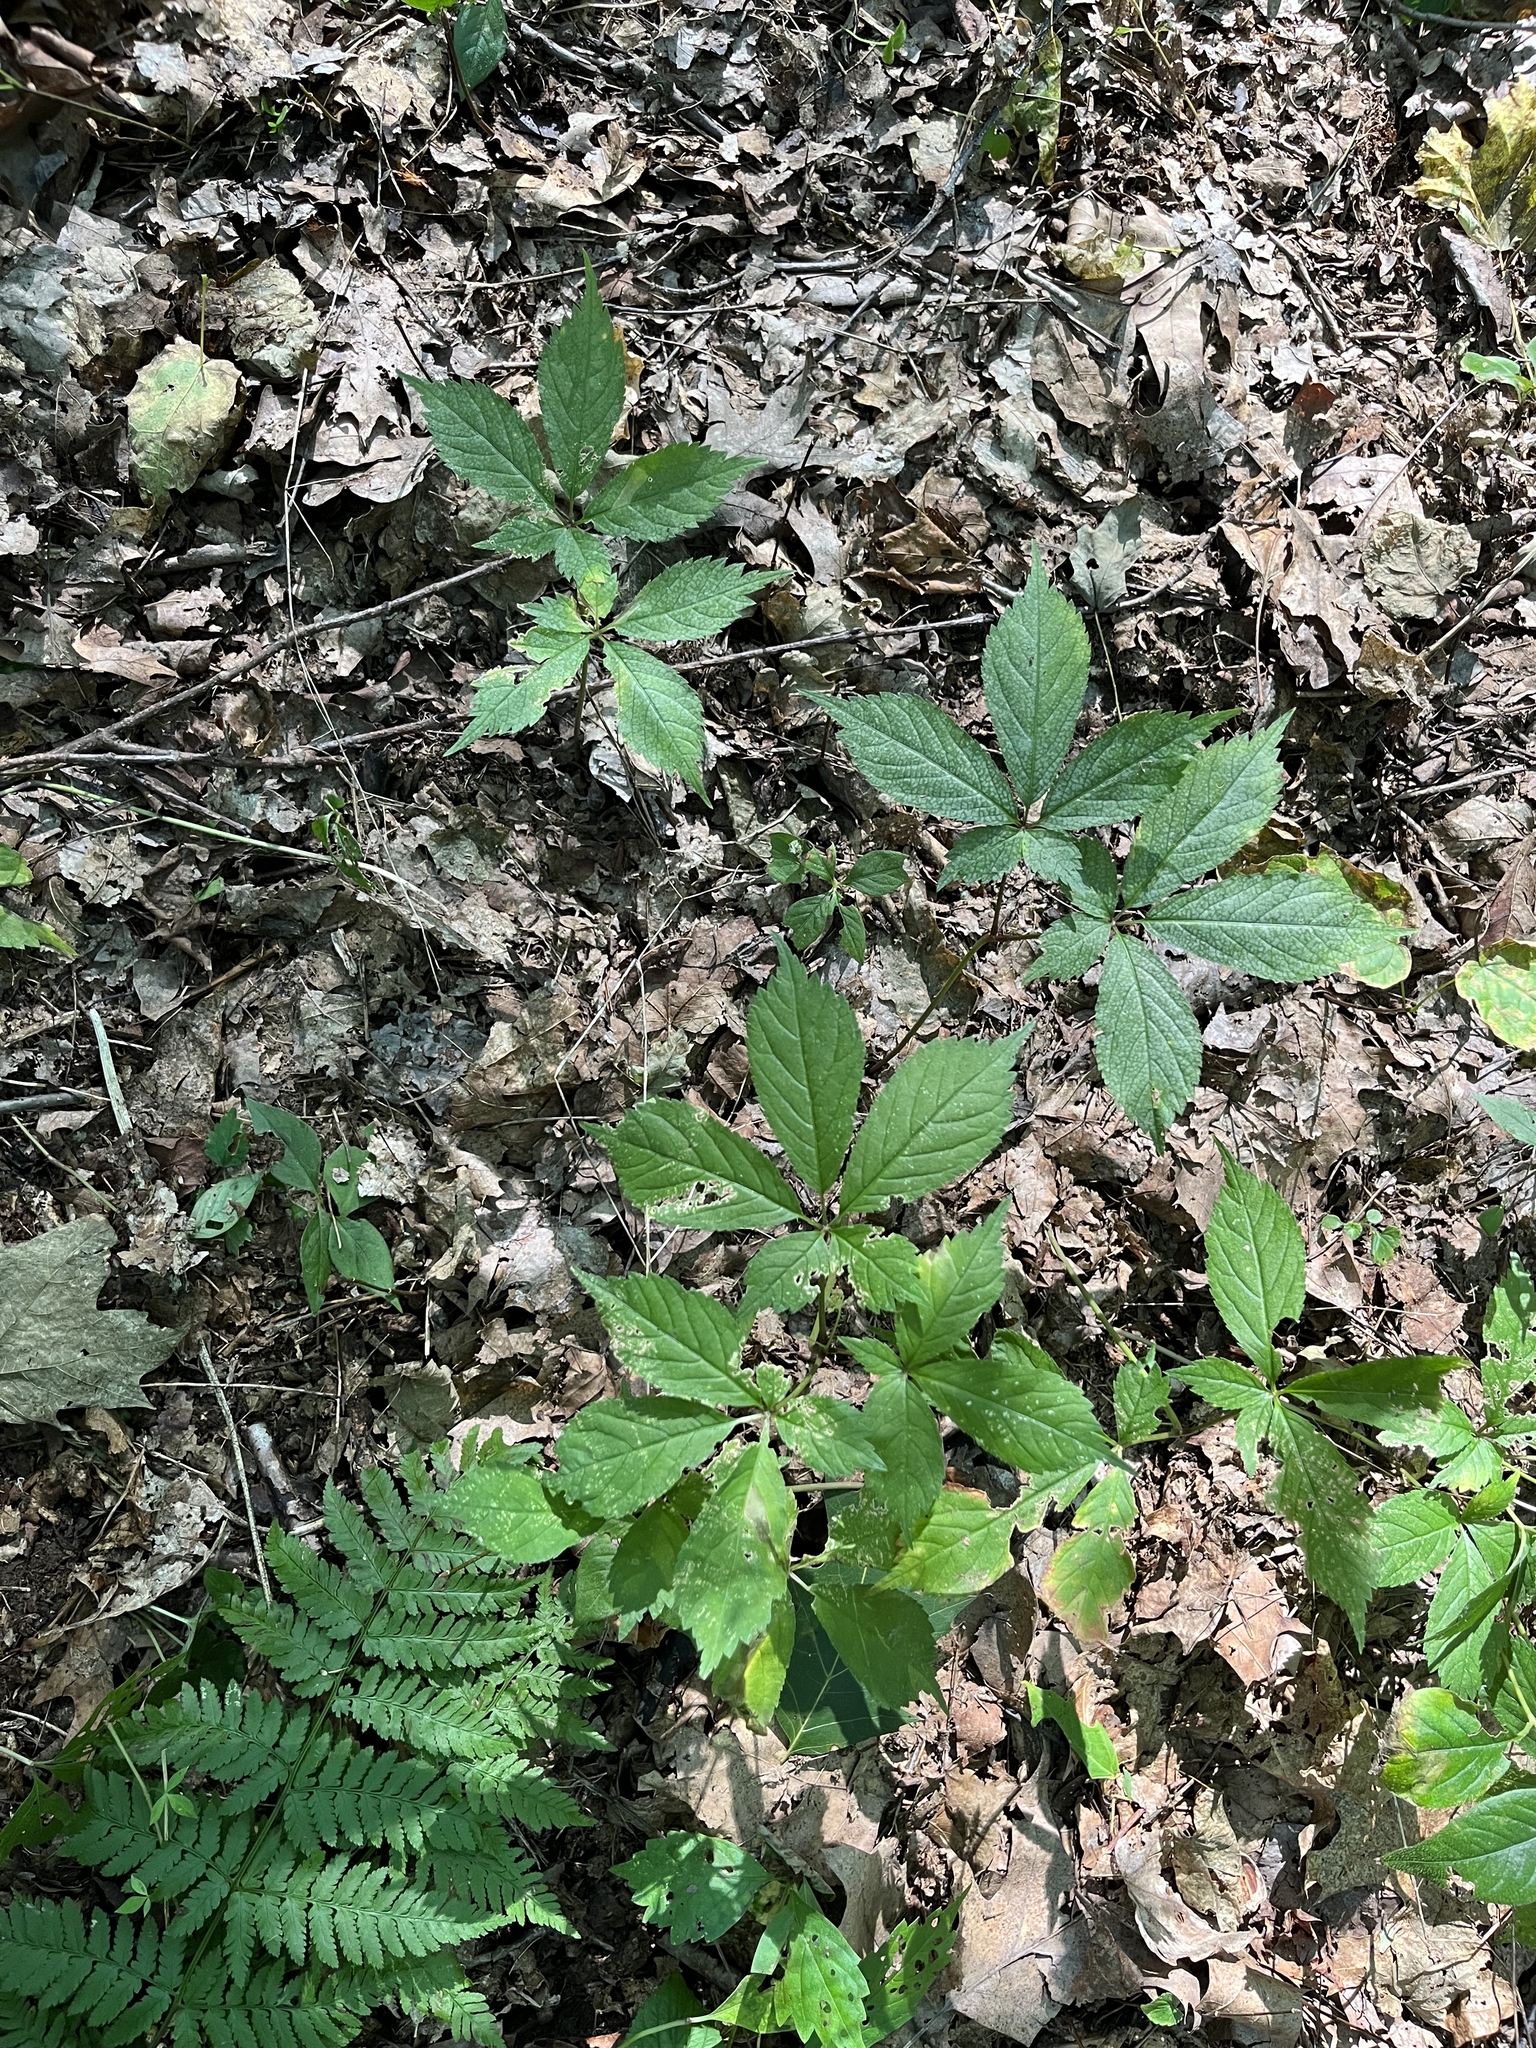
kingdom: Plantae
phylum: Tracheophyta
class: Magnoliopsida
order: Apiales
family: Araliaceae
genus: Panax
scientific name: Panax quinquefolius
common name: American ginseng
